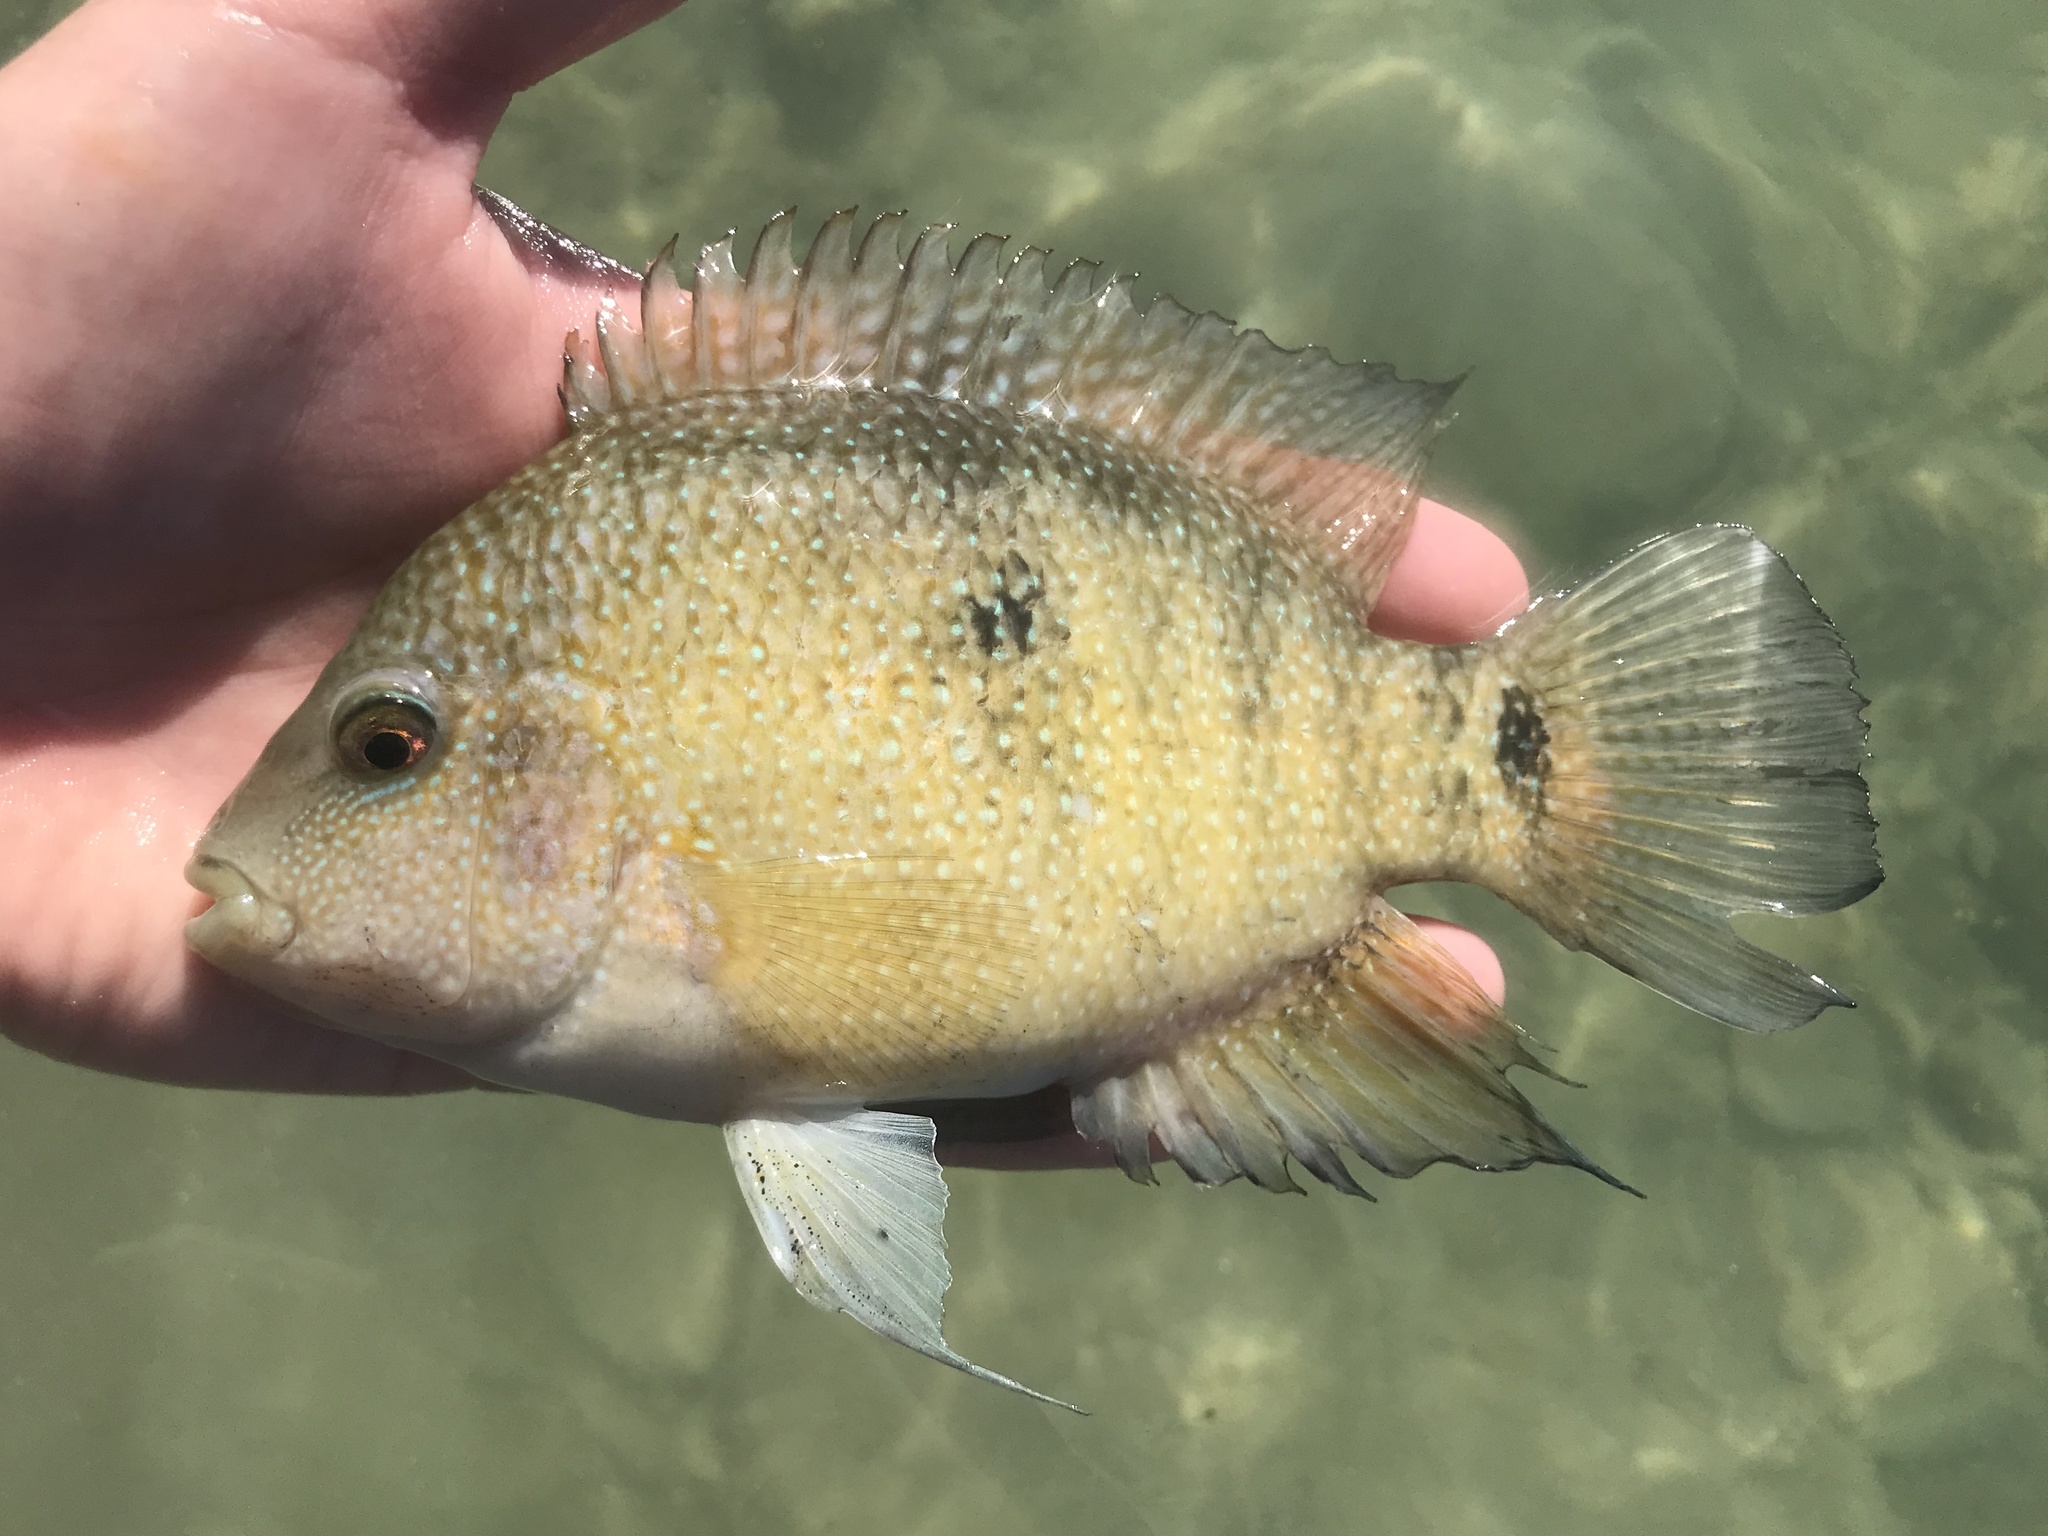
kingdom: Animalia
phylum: Chordata
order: Perciformes
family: Cichlidae
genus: Herichthys
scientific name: Herichthys cyanoguttatus
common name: Rio grande cichlid
